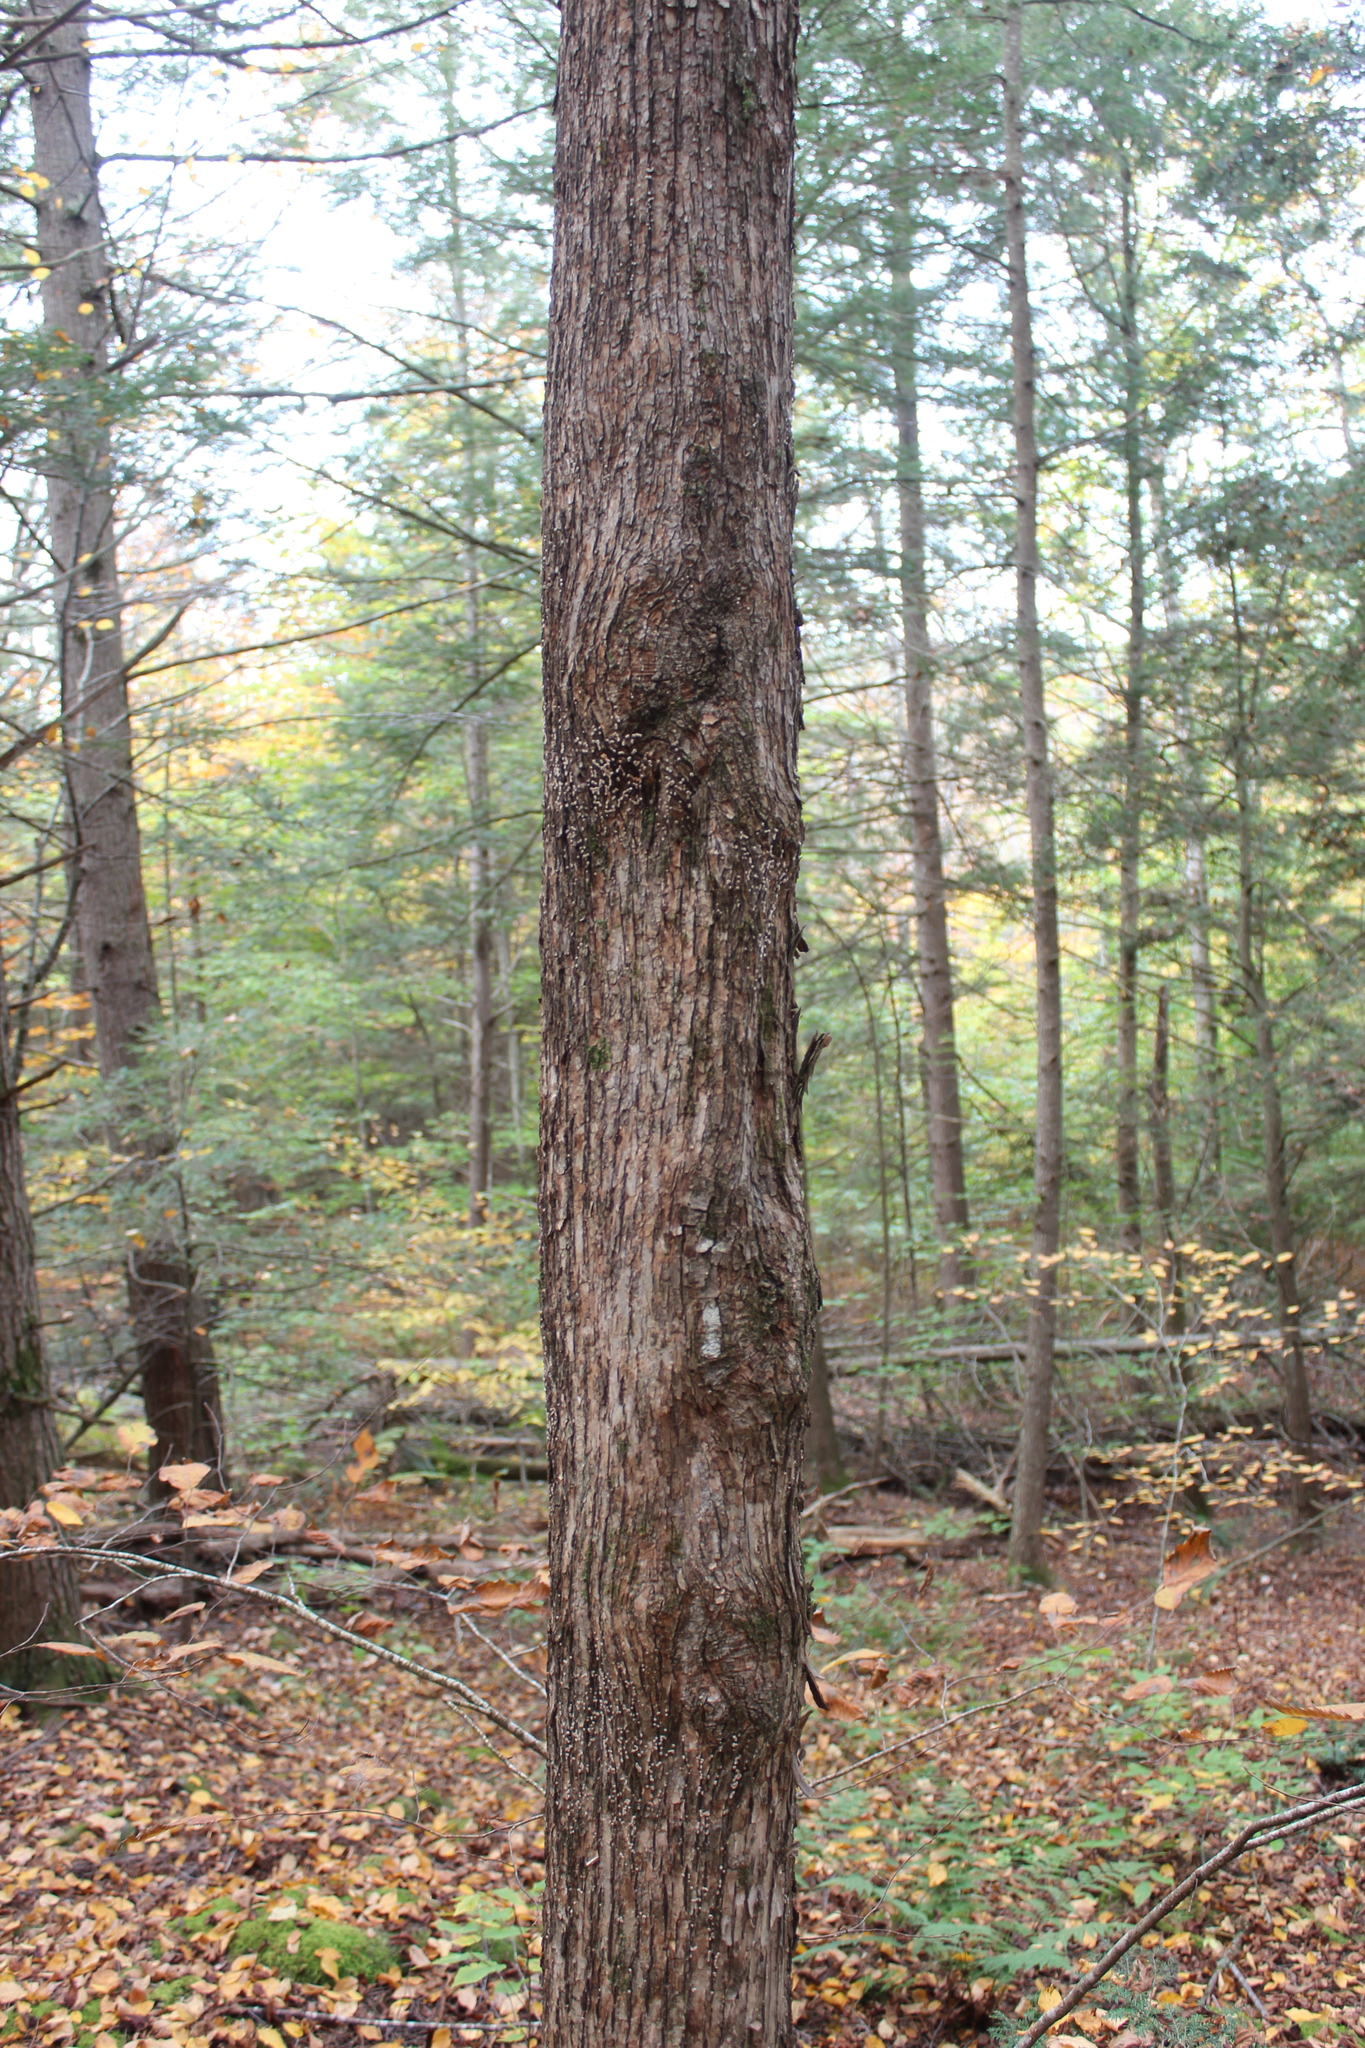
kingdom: Plantae
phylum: Tracheophyta
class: Magnoliopsida
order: Fagales
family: Betulaceae
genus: Ostrya
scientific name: Ostrya virginiana
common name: Ironwood
